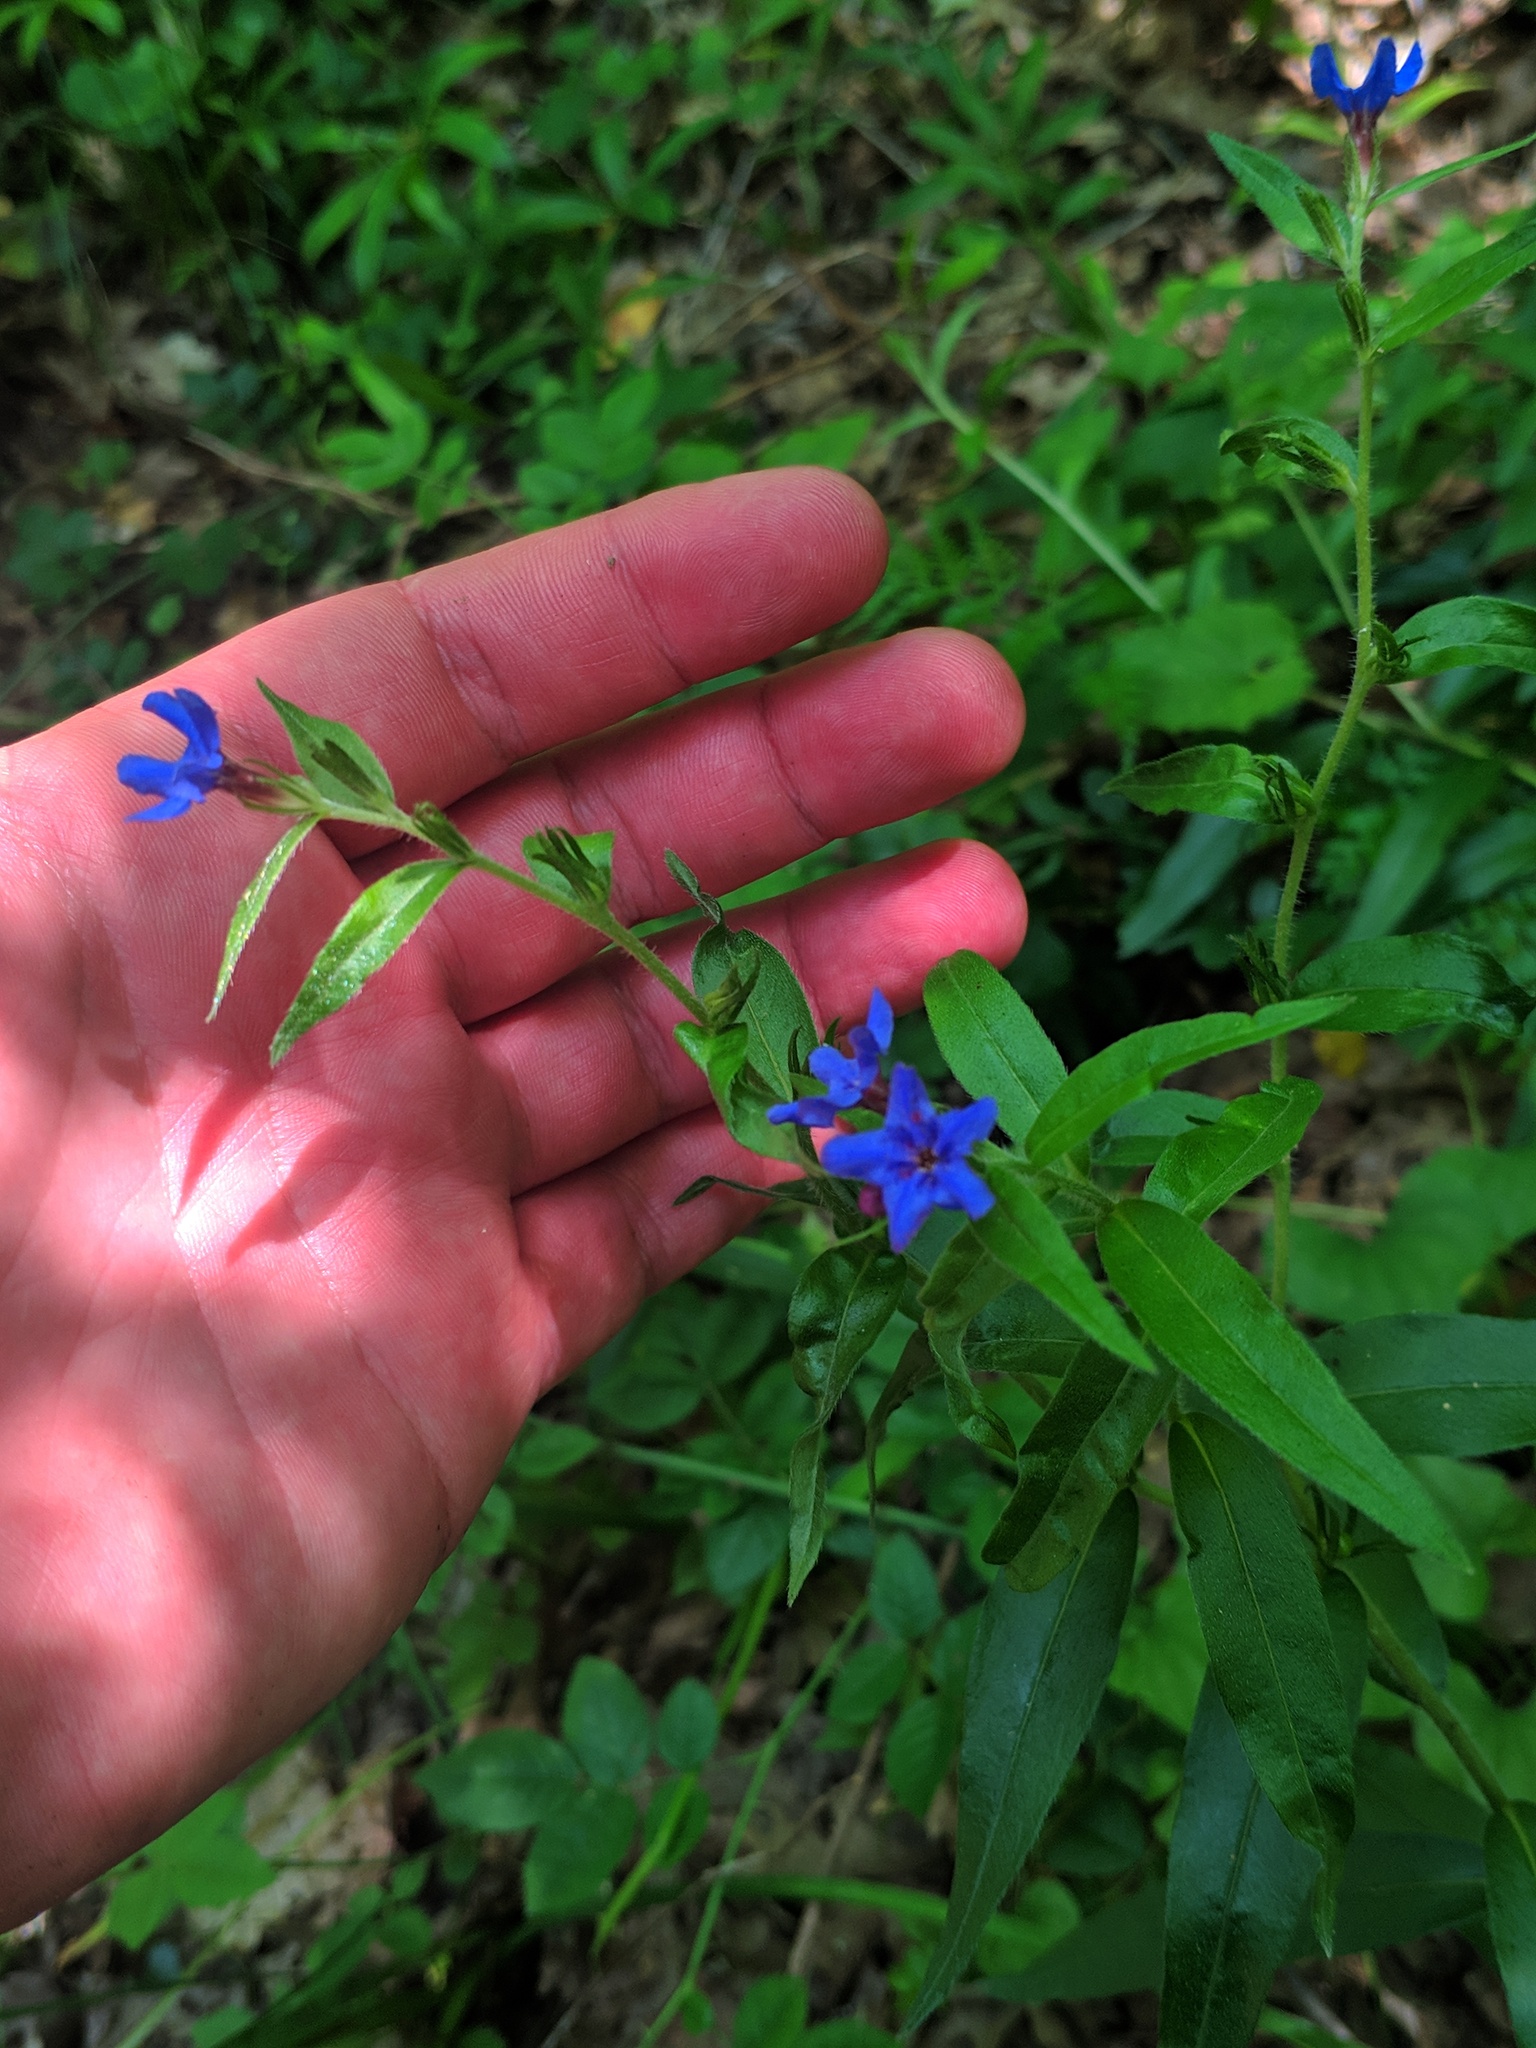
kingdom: Plantae
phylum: Tracheophyta
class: Magnoliopsida
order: Boraginales
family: Boraginaceae
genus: Aegonychon
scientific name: Aegonychon purpurocaeruleum
